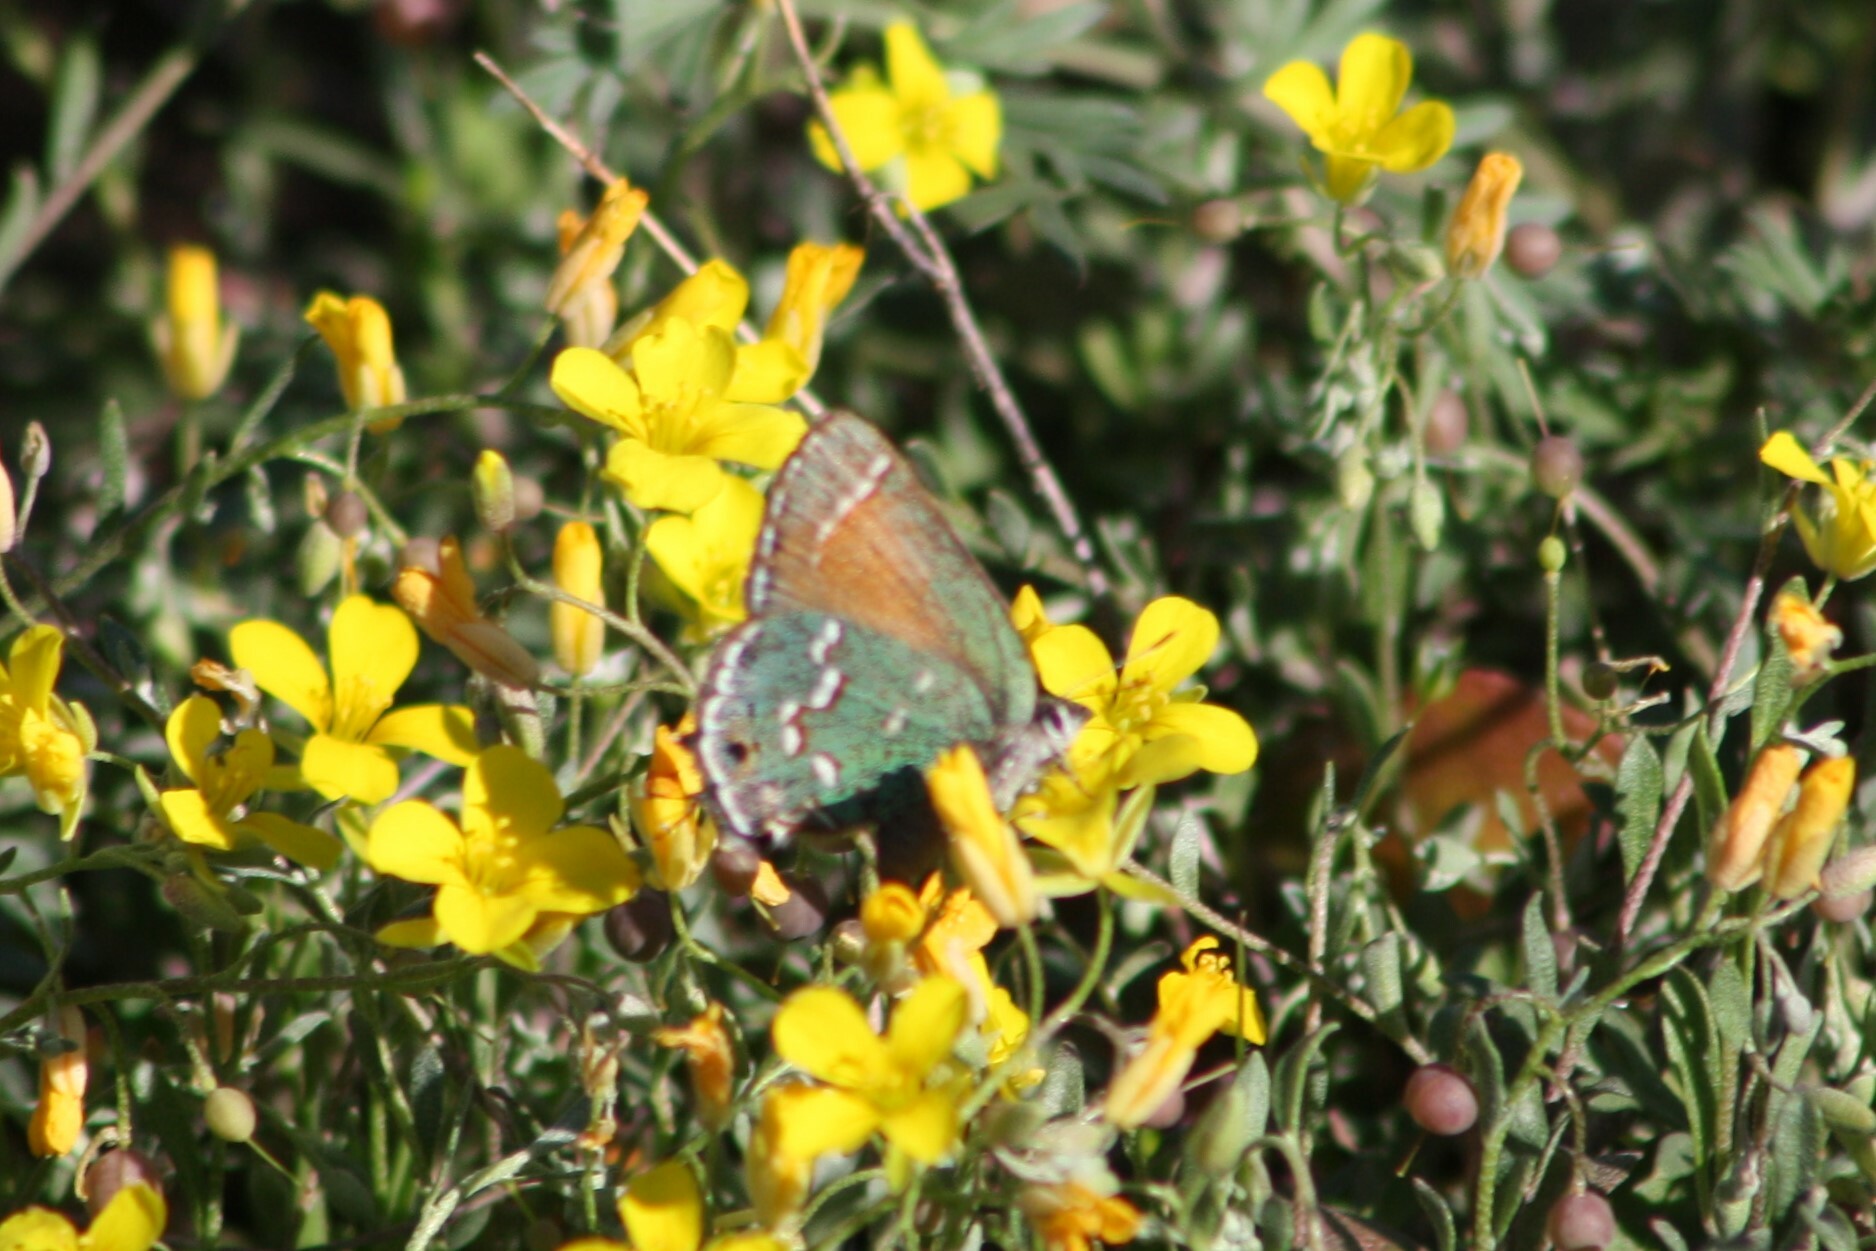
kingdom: Animalia
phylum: Arthropoda
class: Insecta
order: Lepidoptera
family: Lycaenidae
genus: Mitoura
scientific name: Mitoura gryneus
